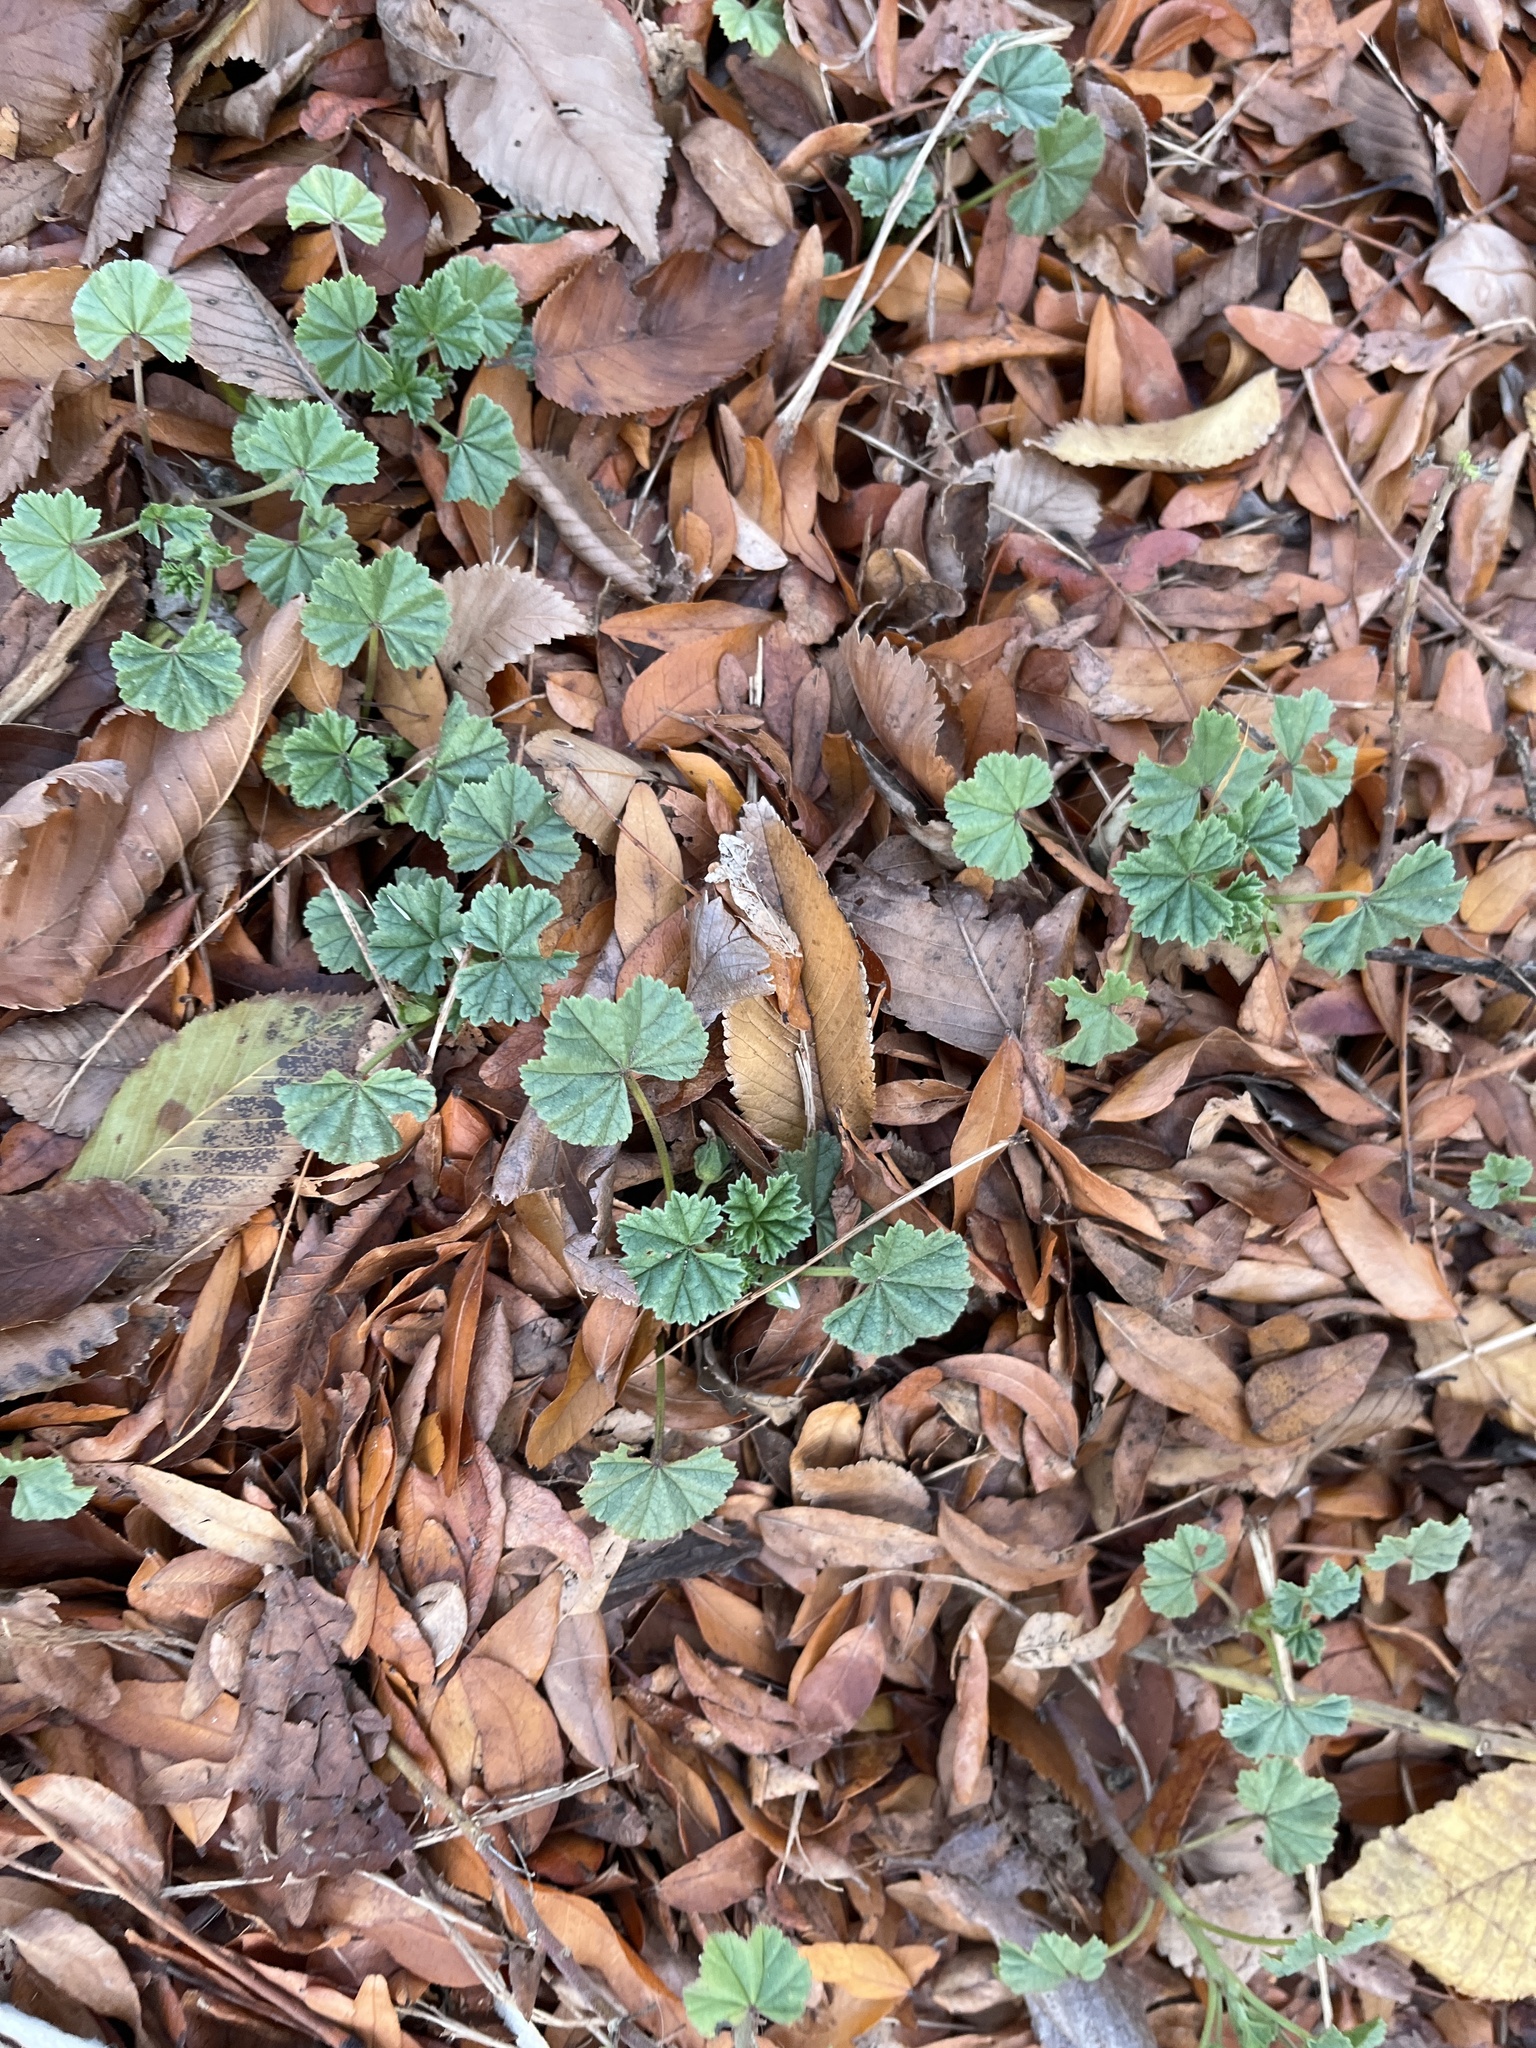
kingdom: Plantae
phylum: Tracheophyta
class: Magnoliopsida
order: Malvales
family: Malvaceae
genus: Malva
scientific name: Malva
